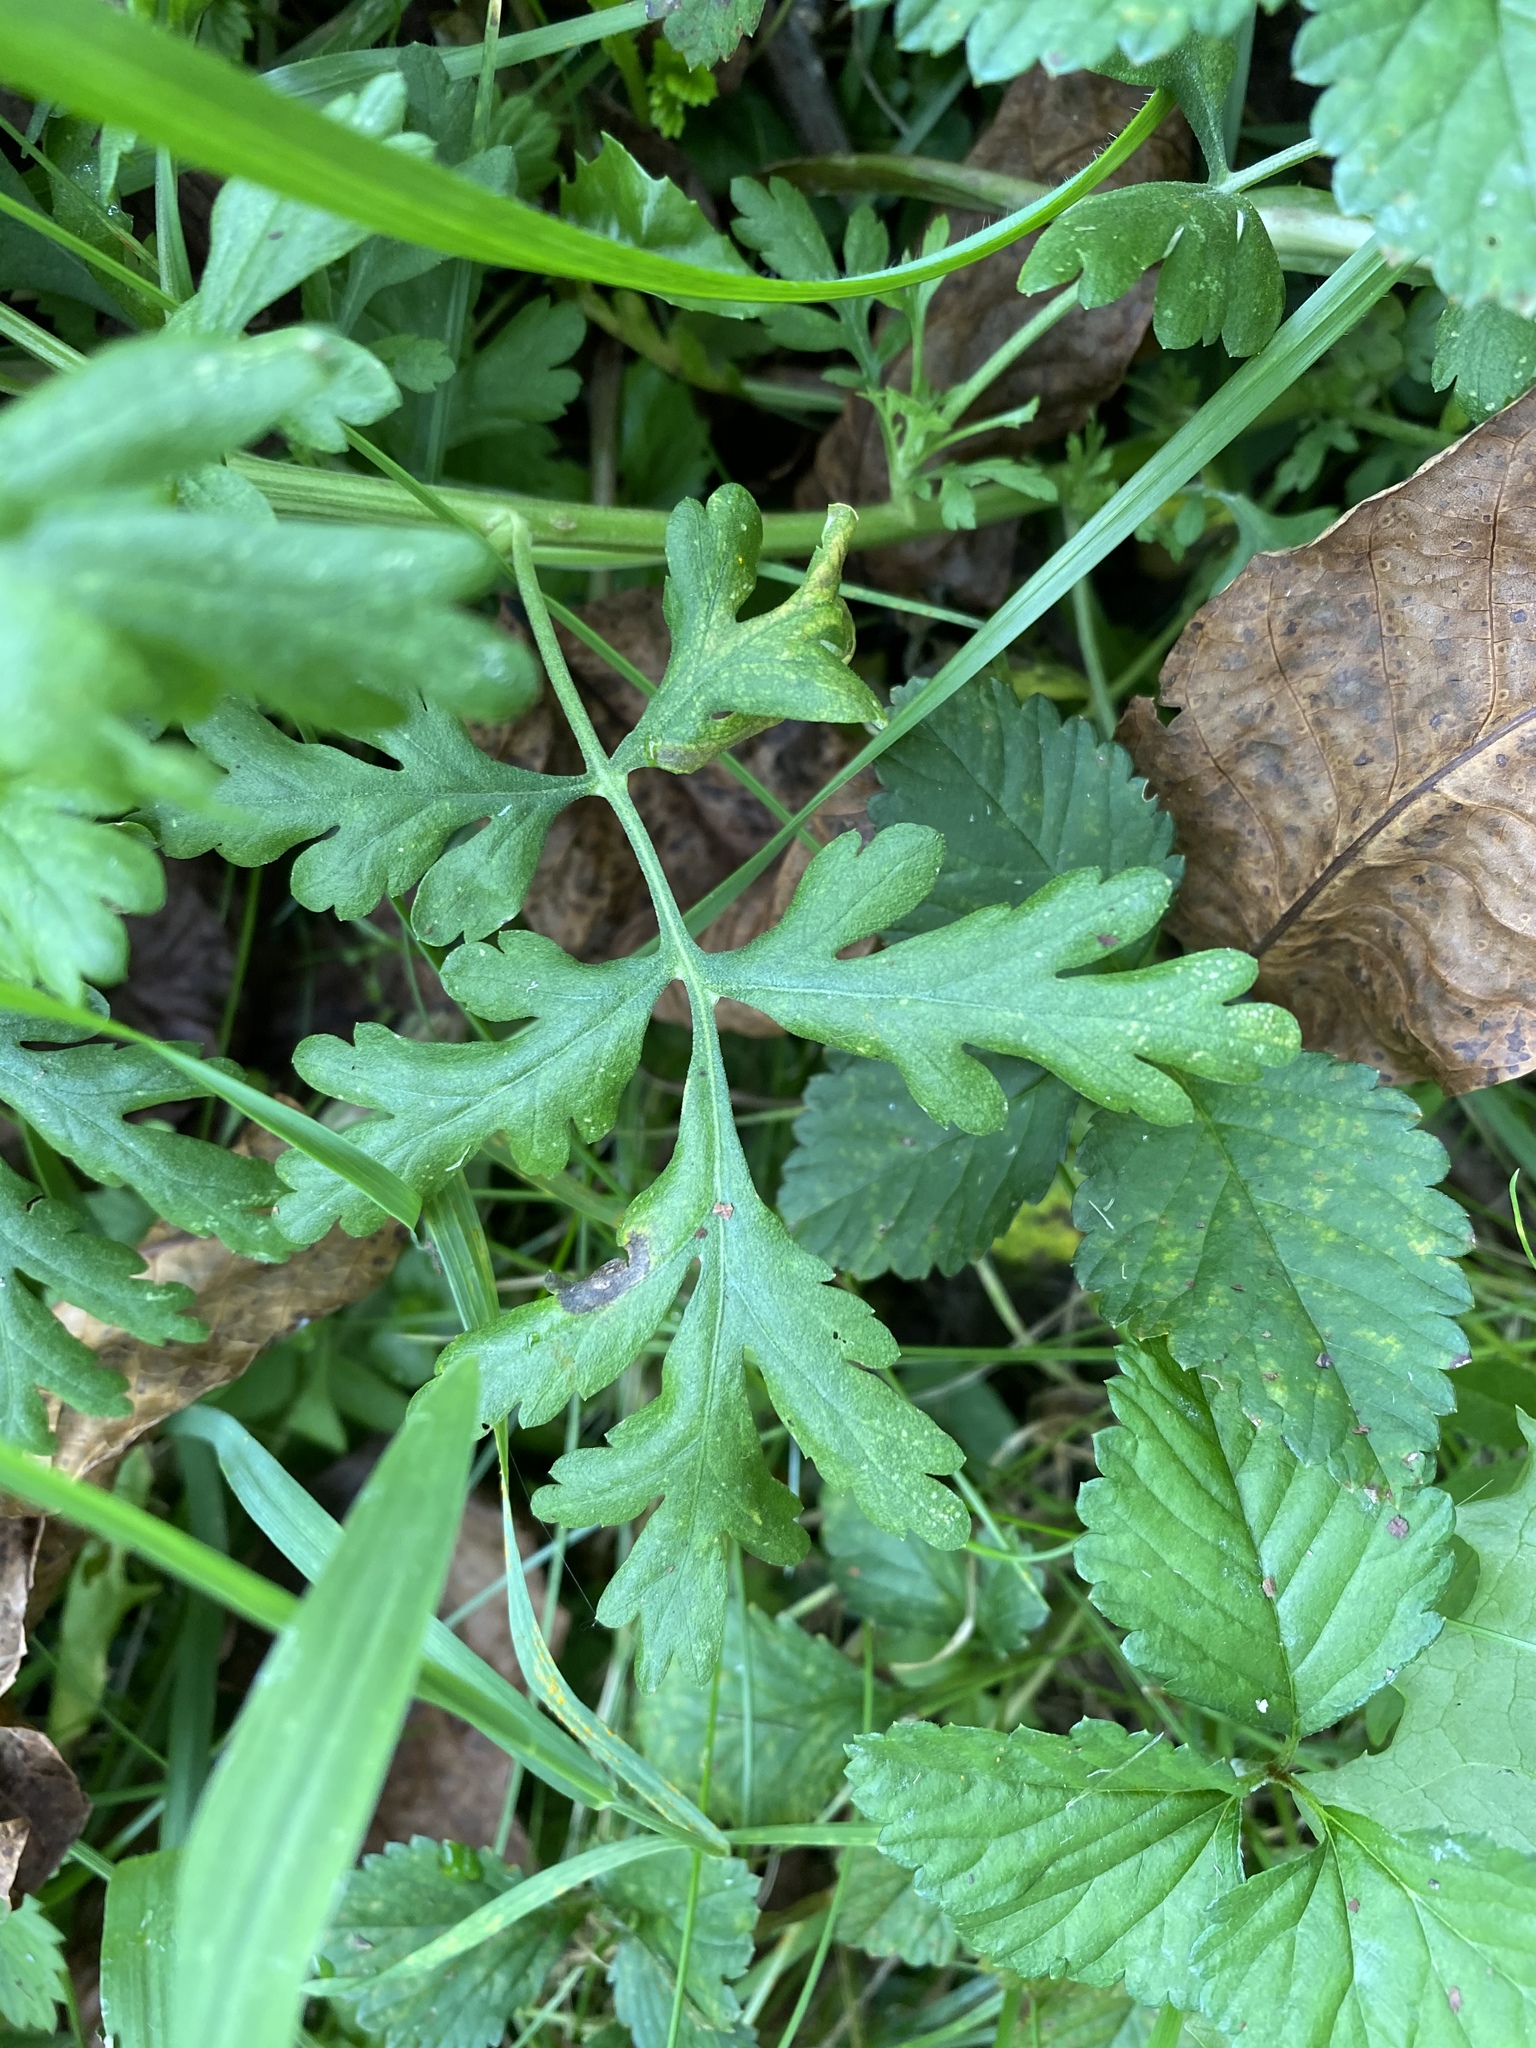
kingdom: Plantae
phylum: Tracheophyta
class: Magnoliopsida
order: Asterales
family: Asteraceae
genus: Tanacetum
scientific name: Tanacetum parthenium
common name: Feverfew
